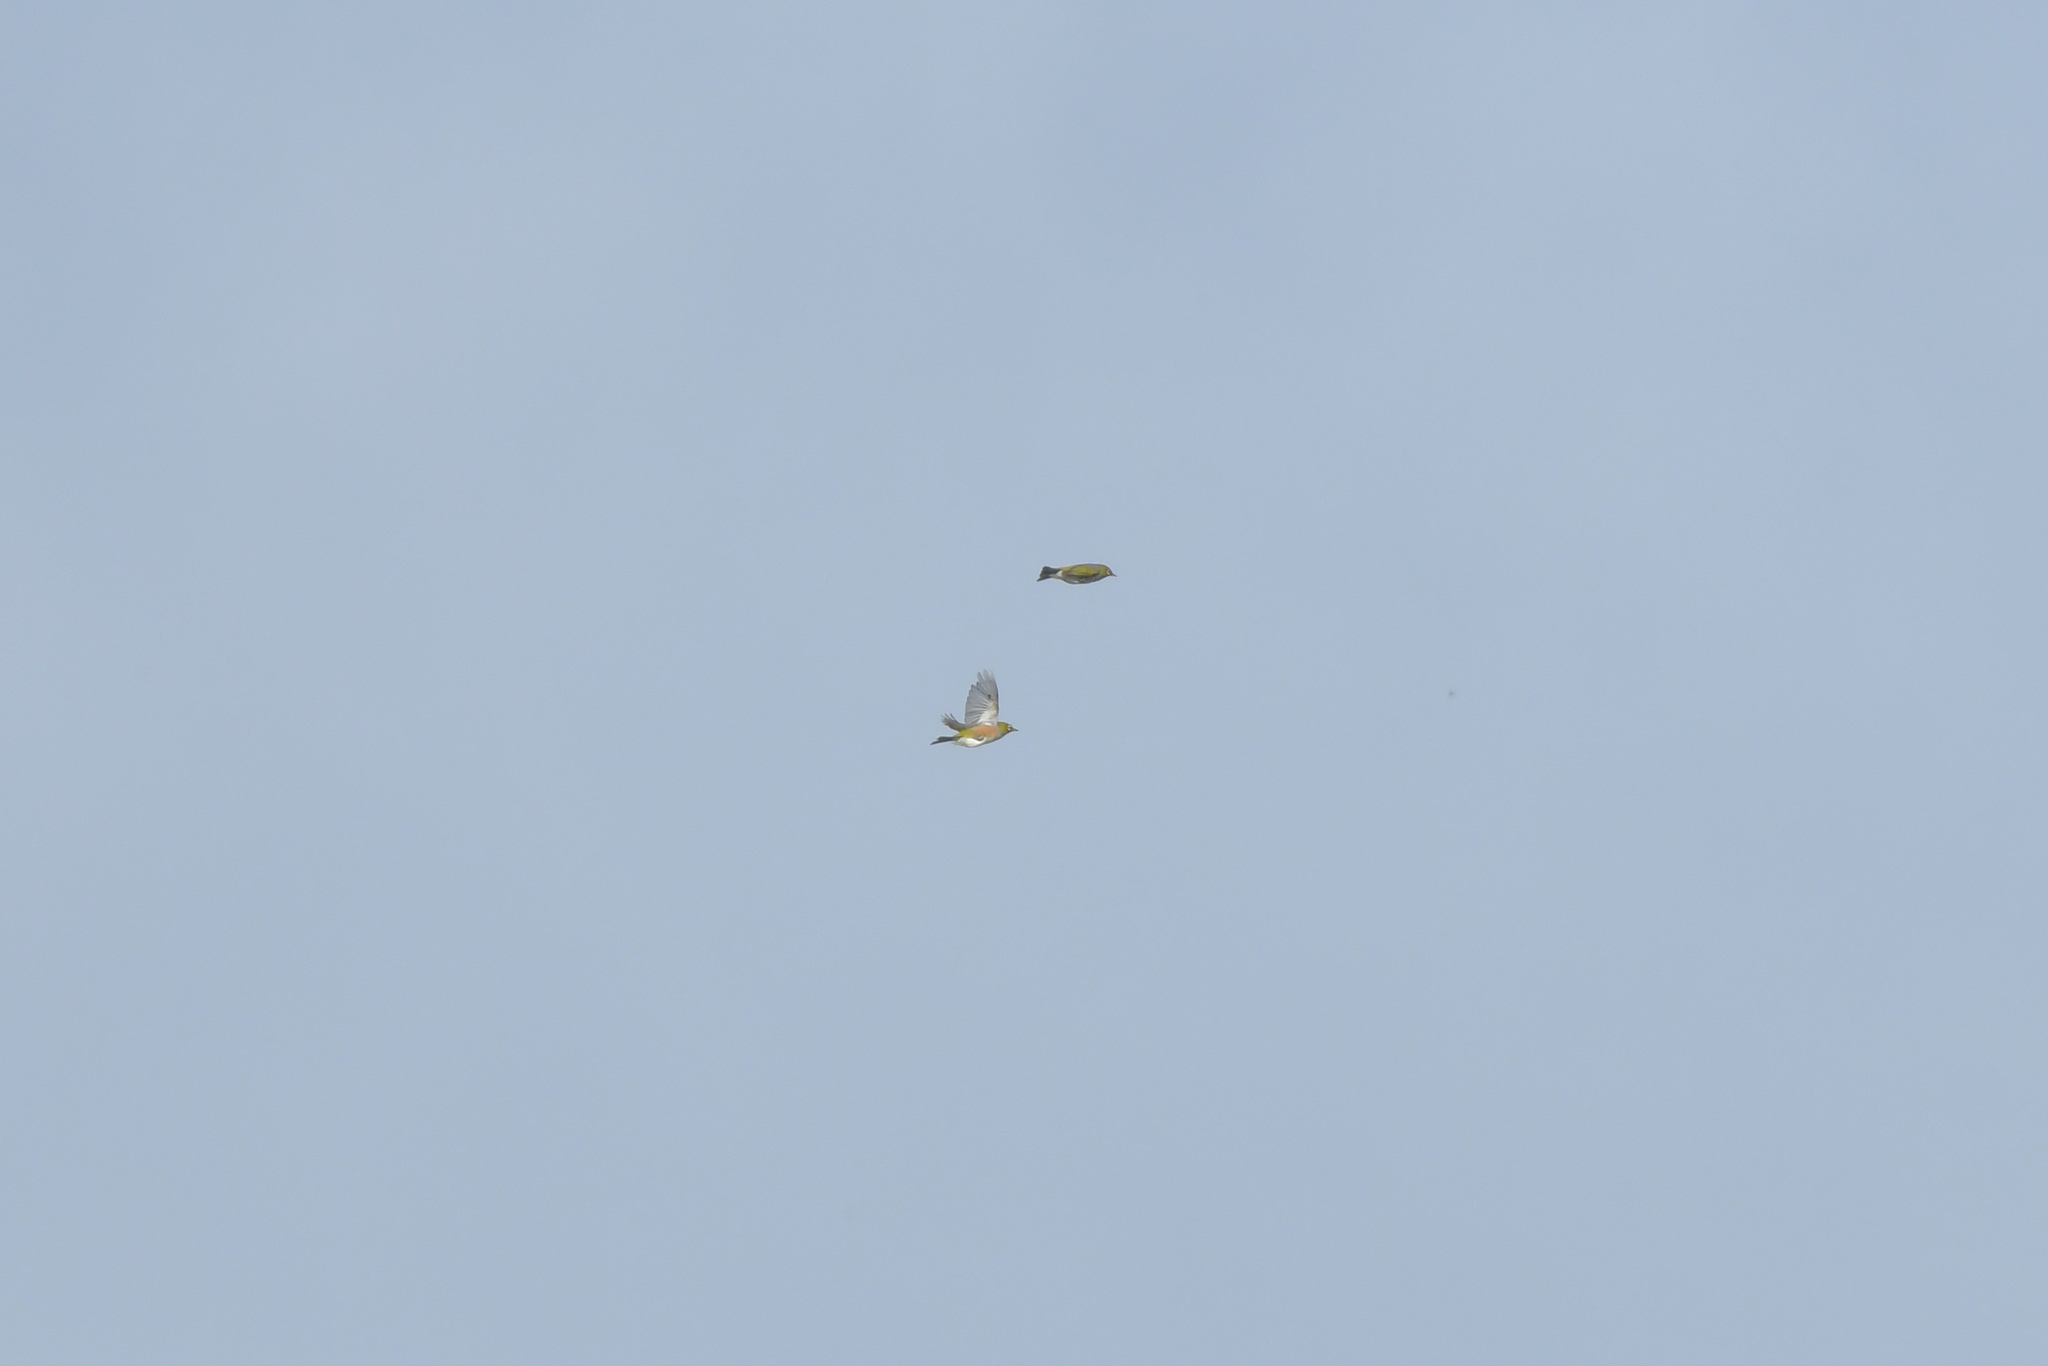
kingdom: Animalia
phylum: Chordata
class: Aves
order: Passeriformes
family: Zosteropidae
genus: Zosterops
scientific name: Zosterops lateralis
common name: Silvereye
